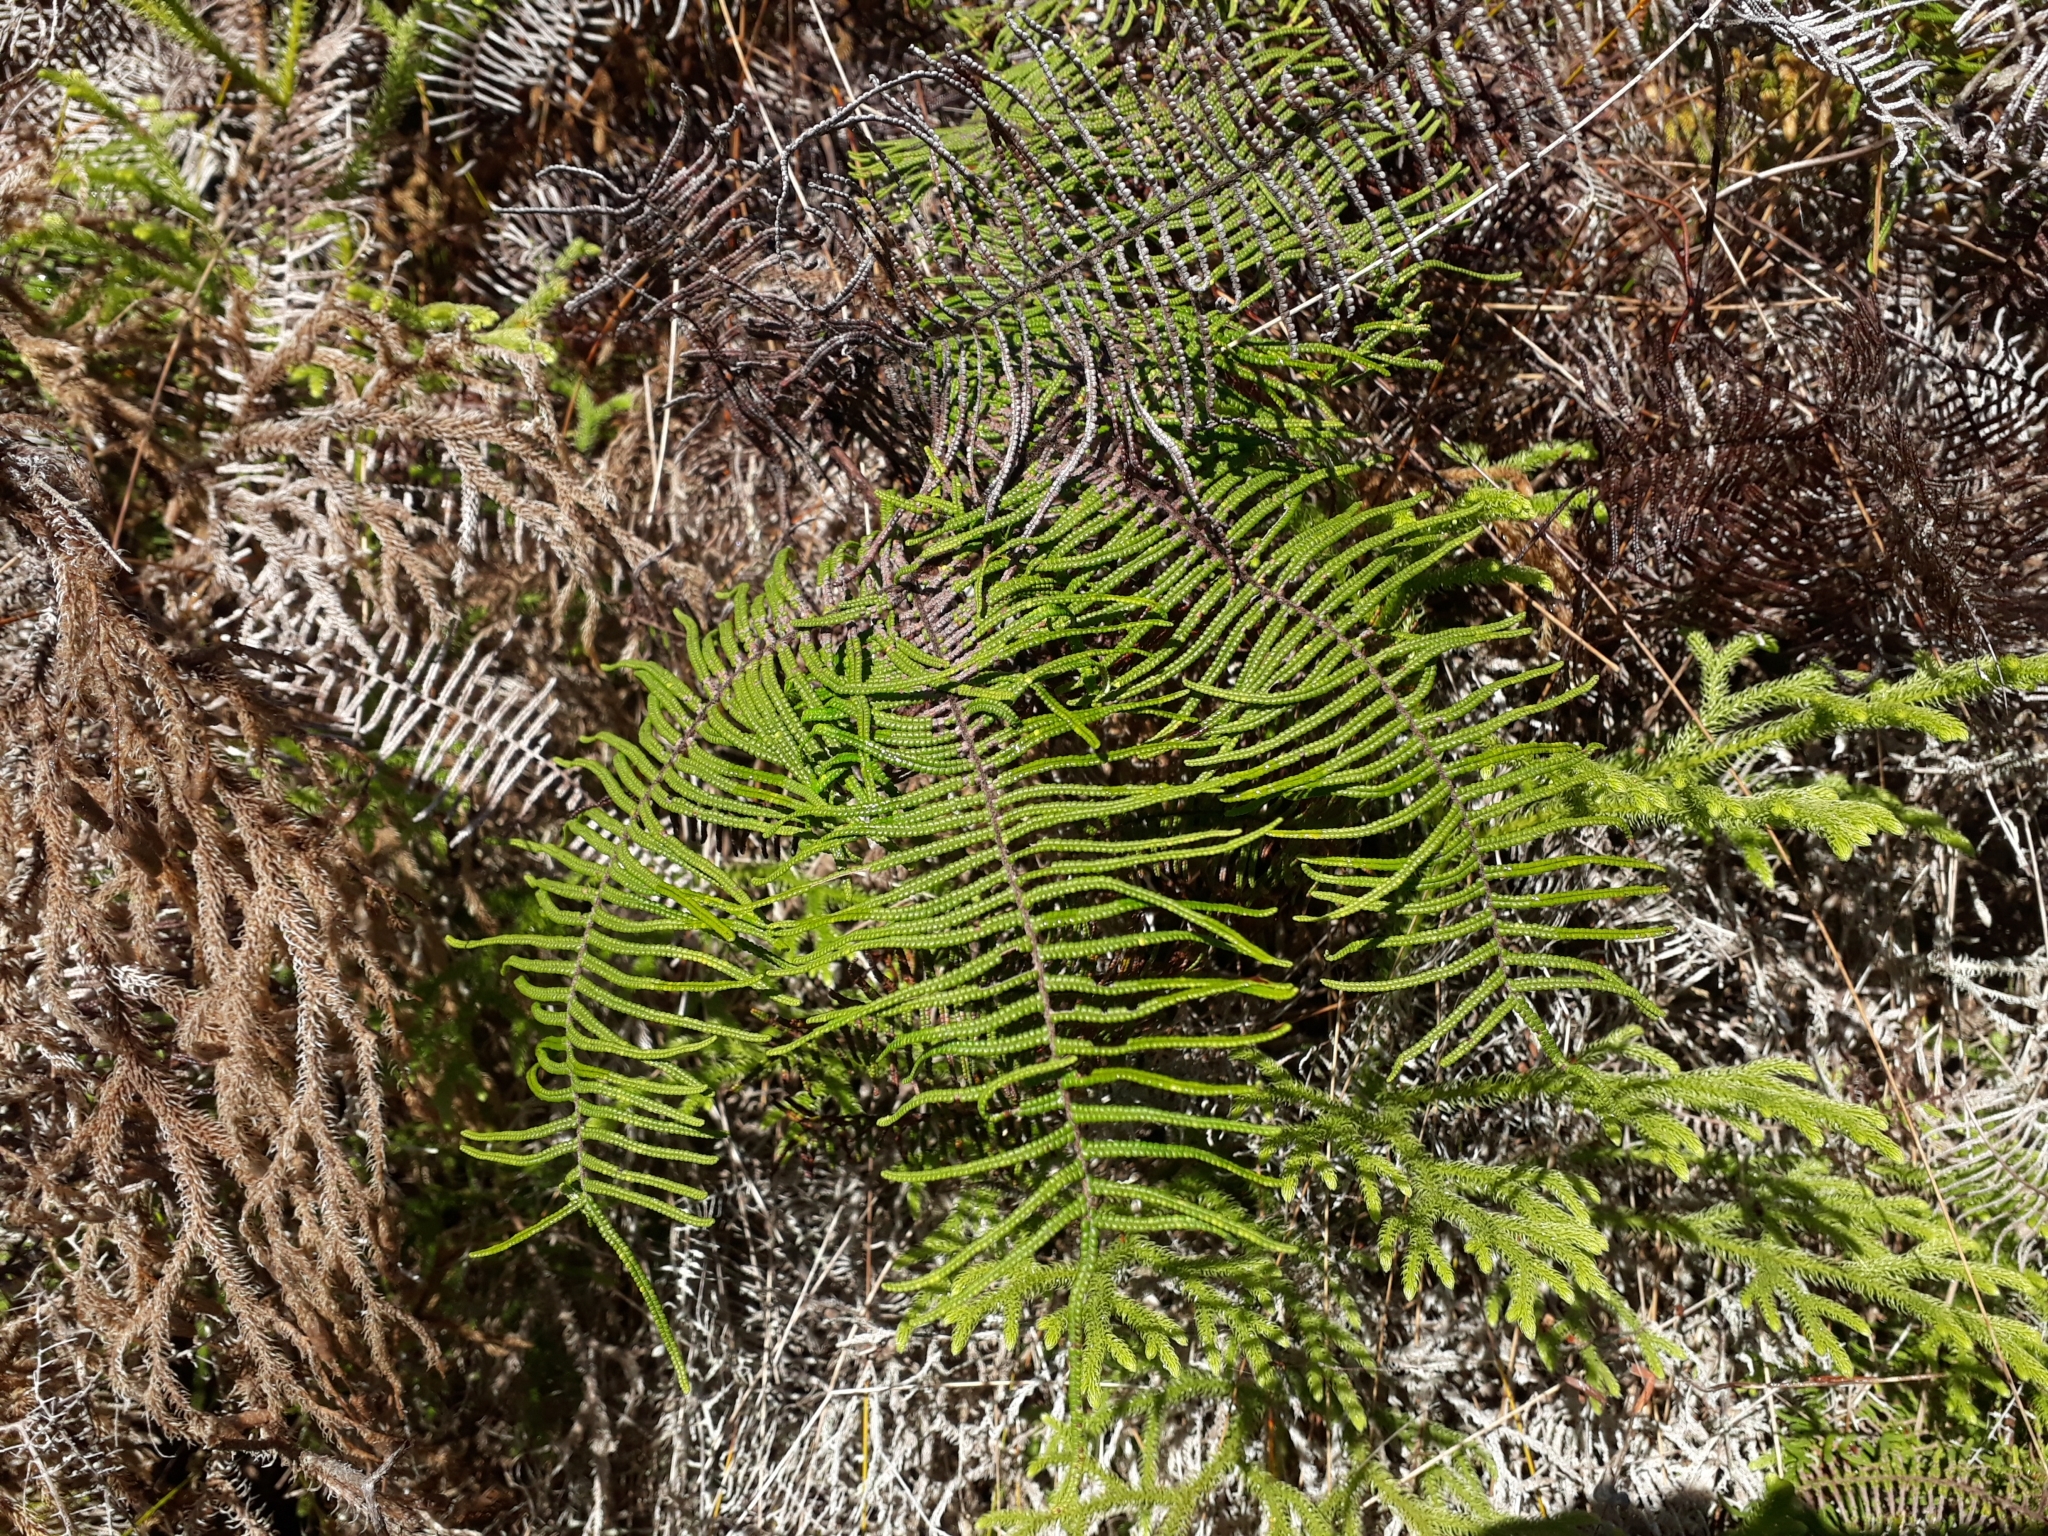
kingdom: Plantae
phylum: Tracheophyta
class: Polypodiopsida
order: Gleicheniales
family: Gleicheniaceae
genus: Gleichenia
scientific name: Gleichenia dicarpa
